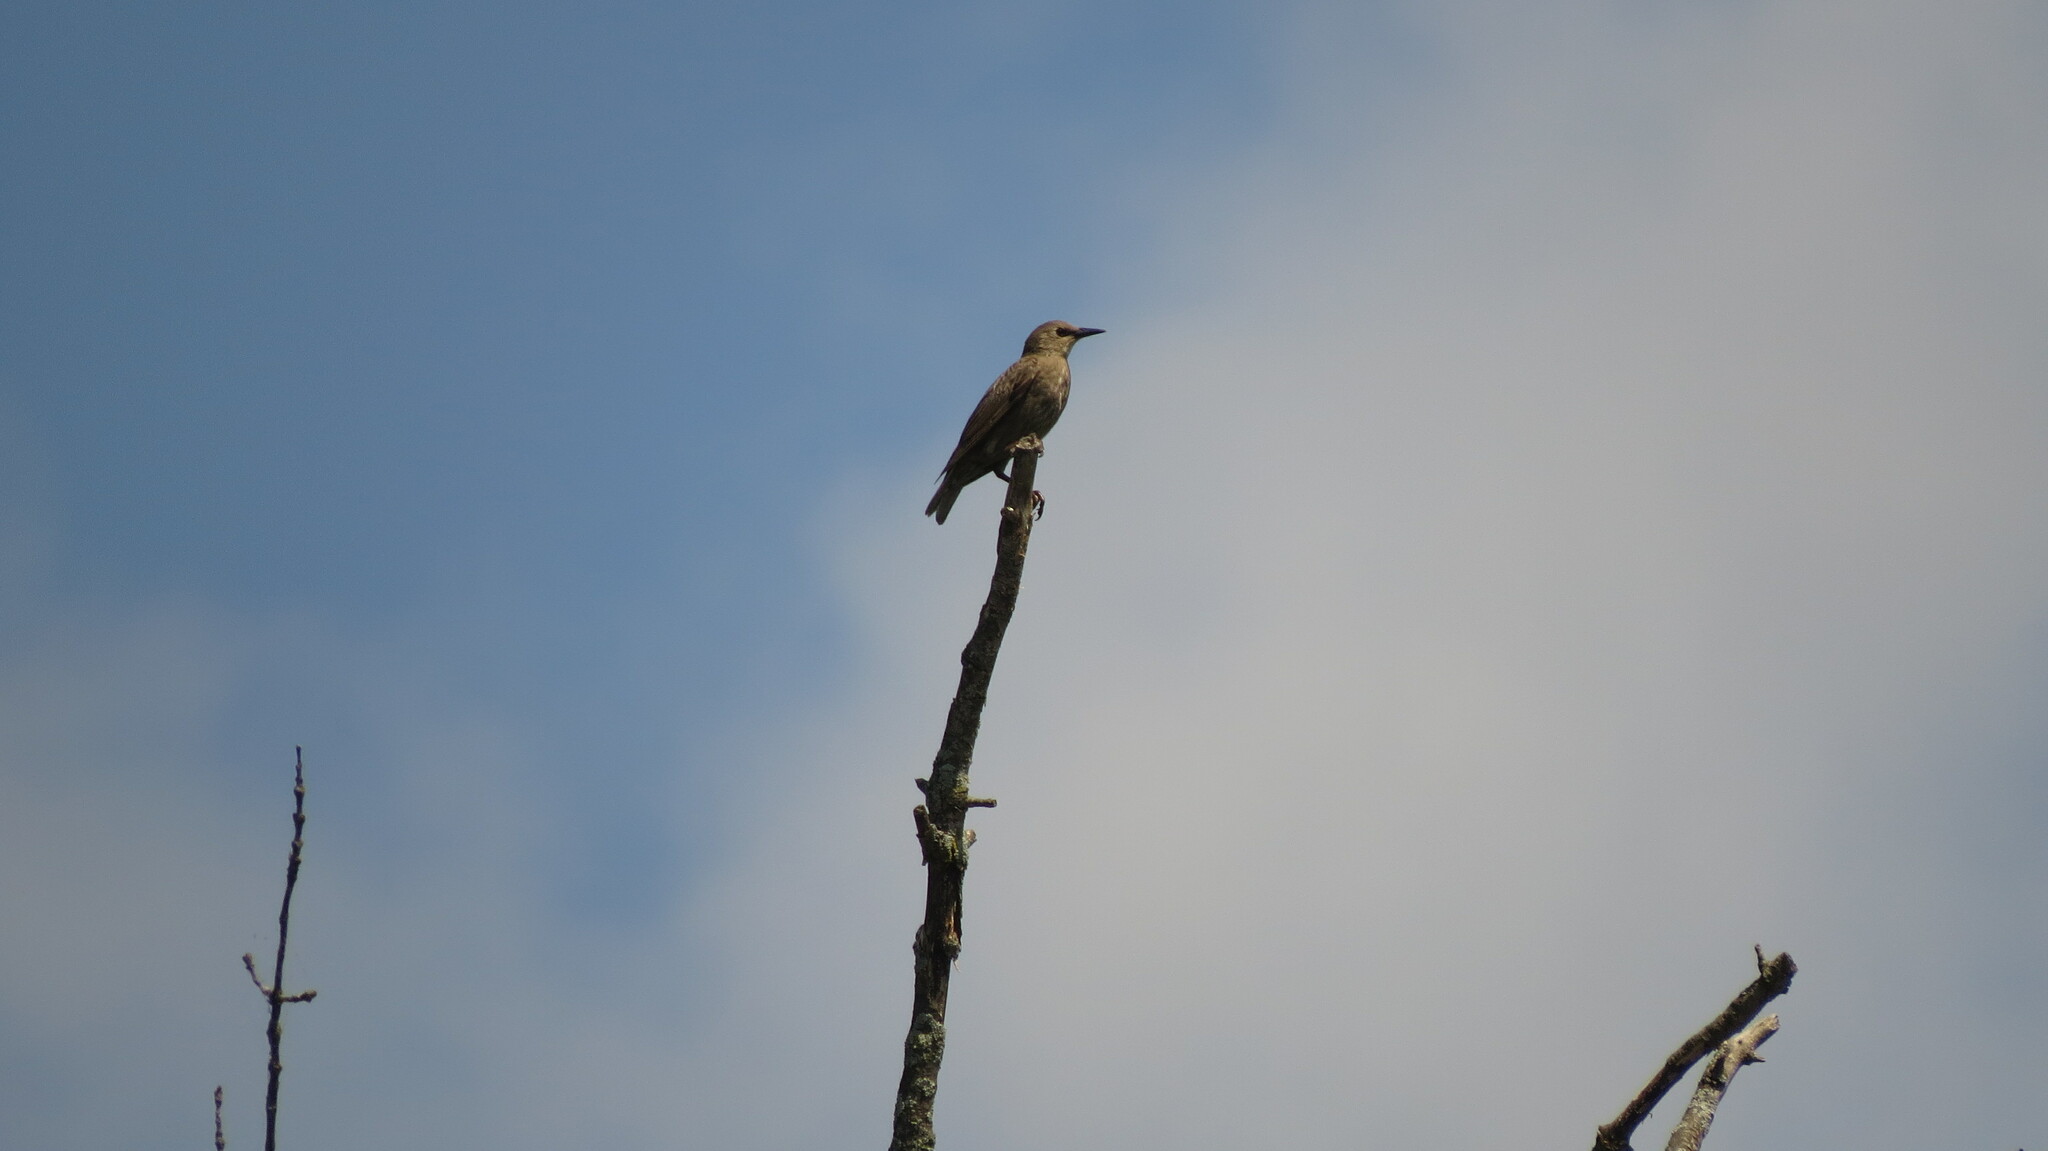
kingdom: Animalia
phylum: Chordata
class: Aves
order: Passeriformes
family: Sturnidae
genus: Sturnus
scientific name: Sturnus vulgaris
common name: Common starling
